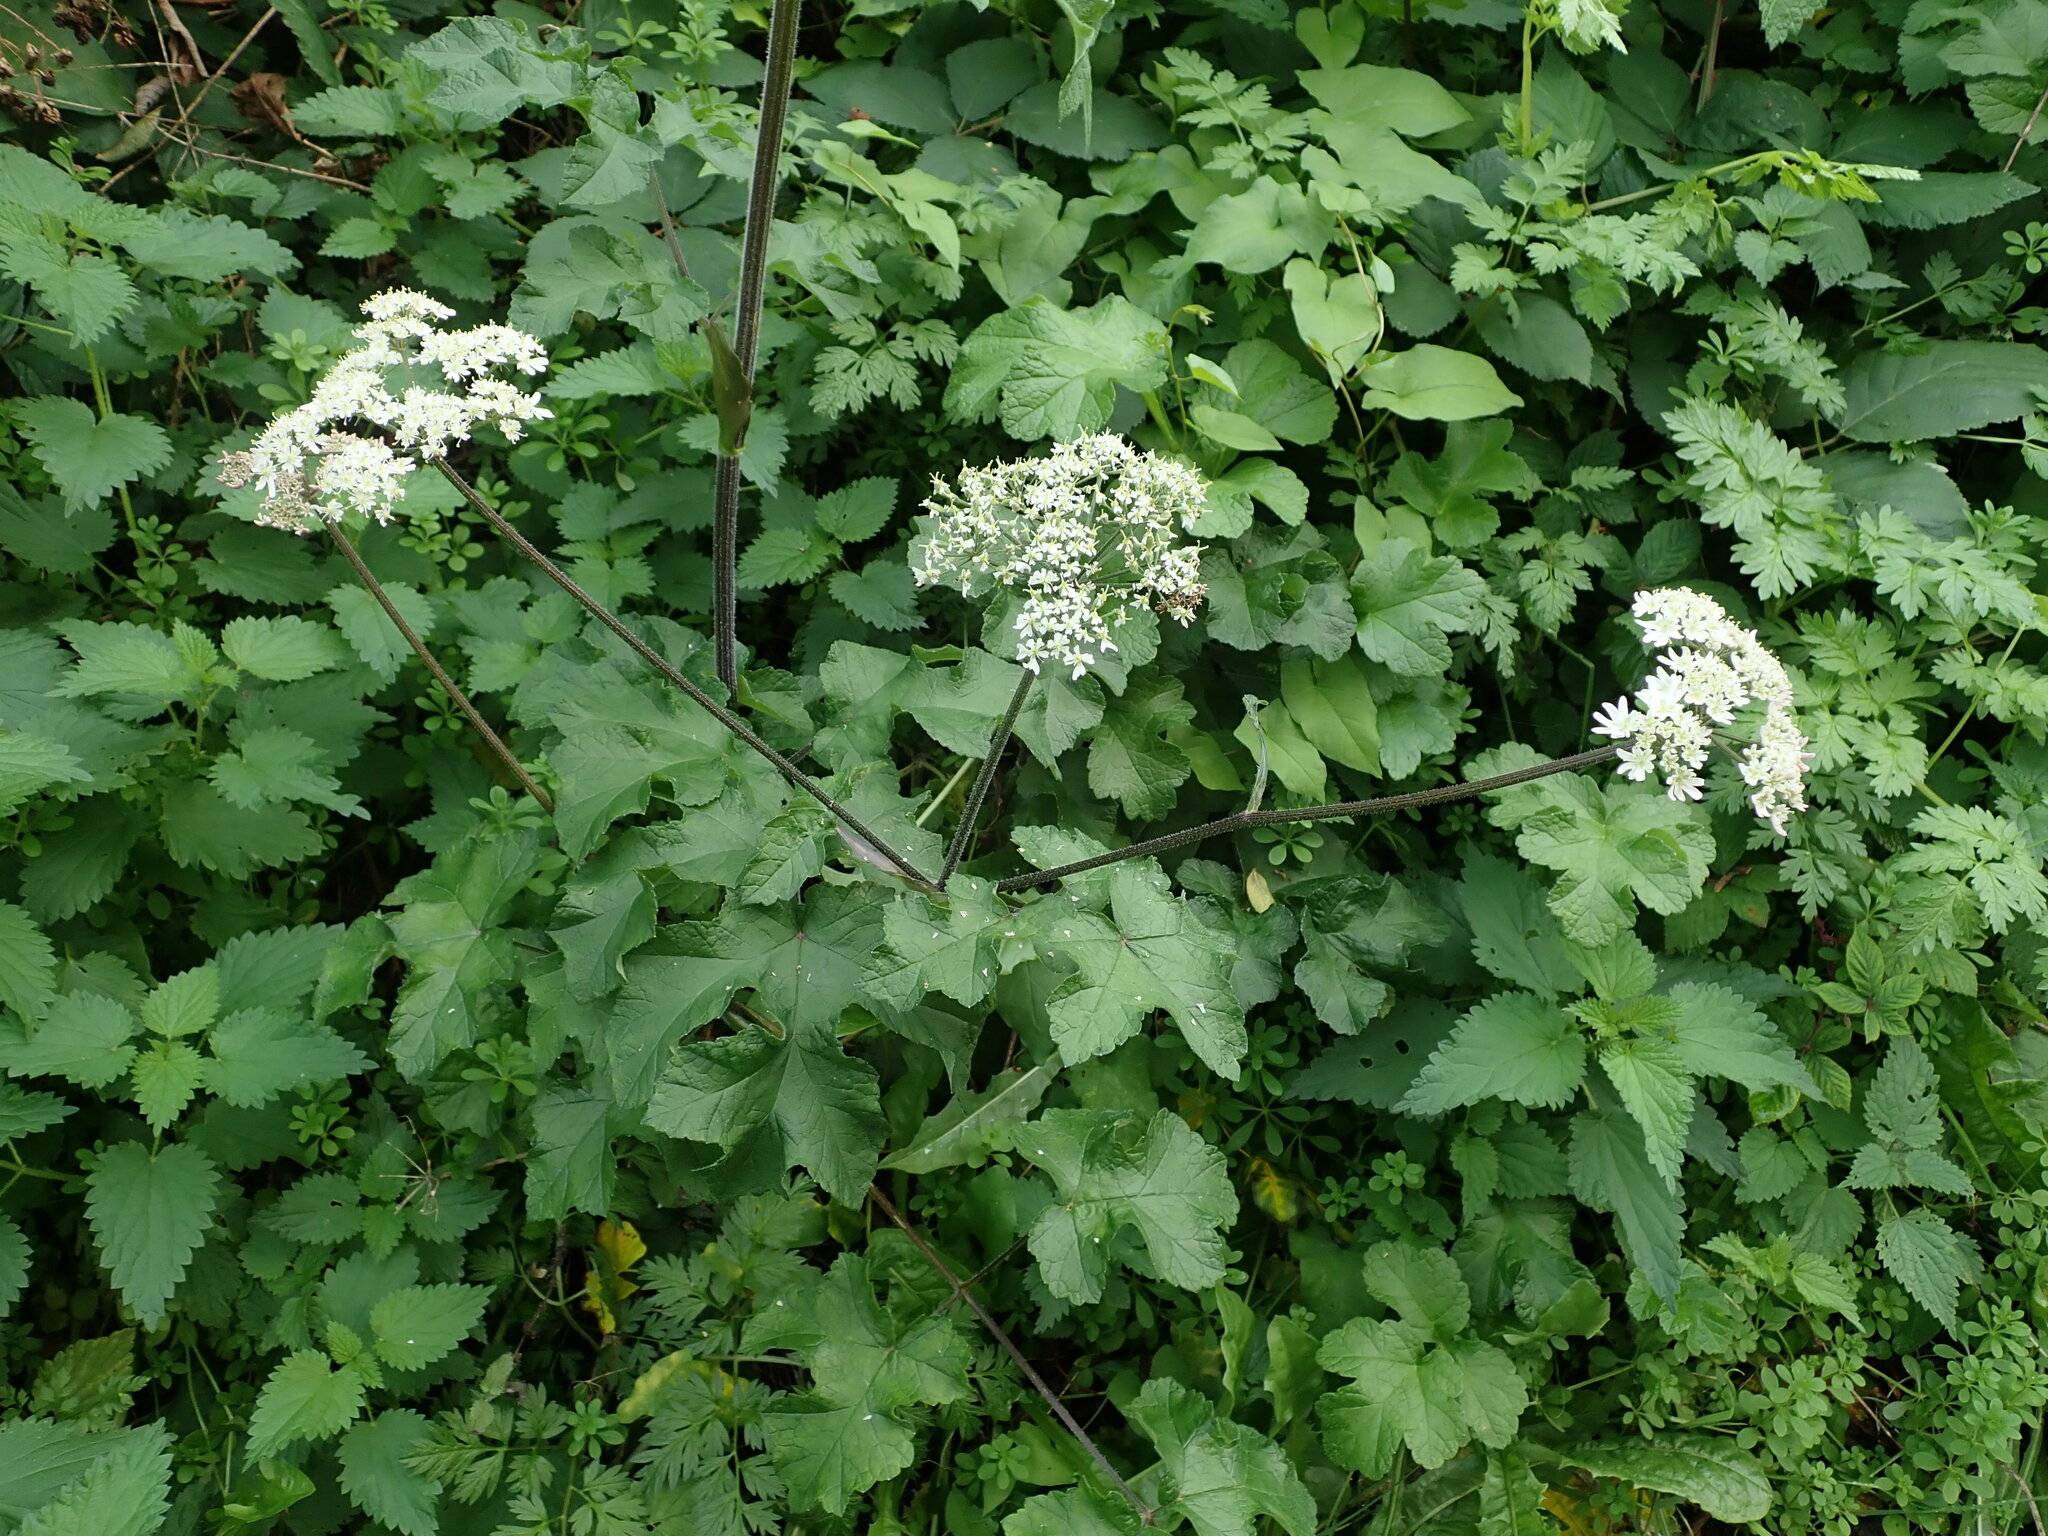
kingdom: Plantae
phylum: Tracheophyta
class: Magnoliopsida
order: Apiales
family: Apiaceae
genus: Heracleum
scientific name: Heracleum sphondylium
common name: Hogweed
